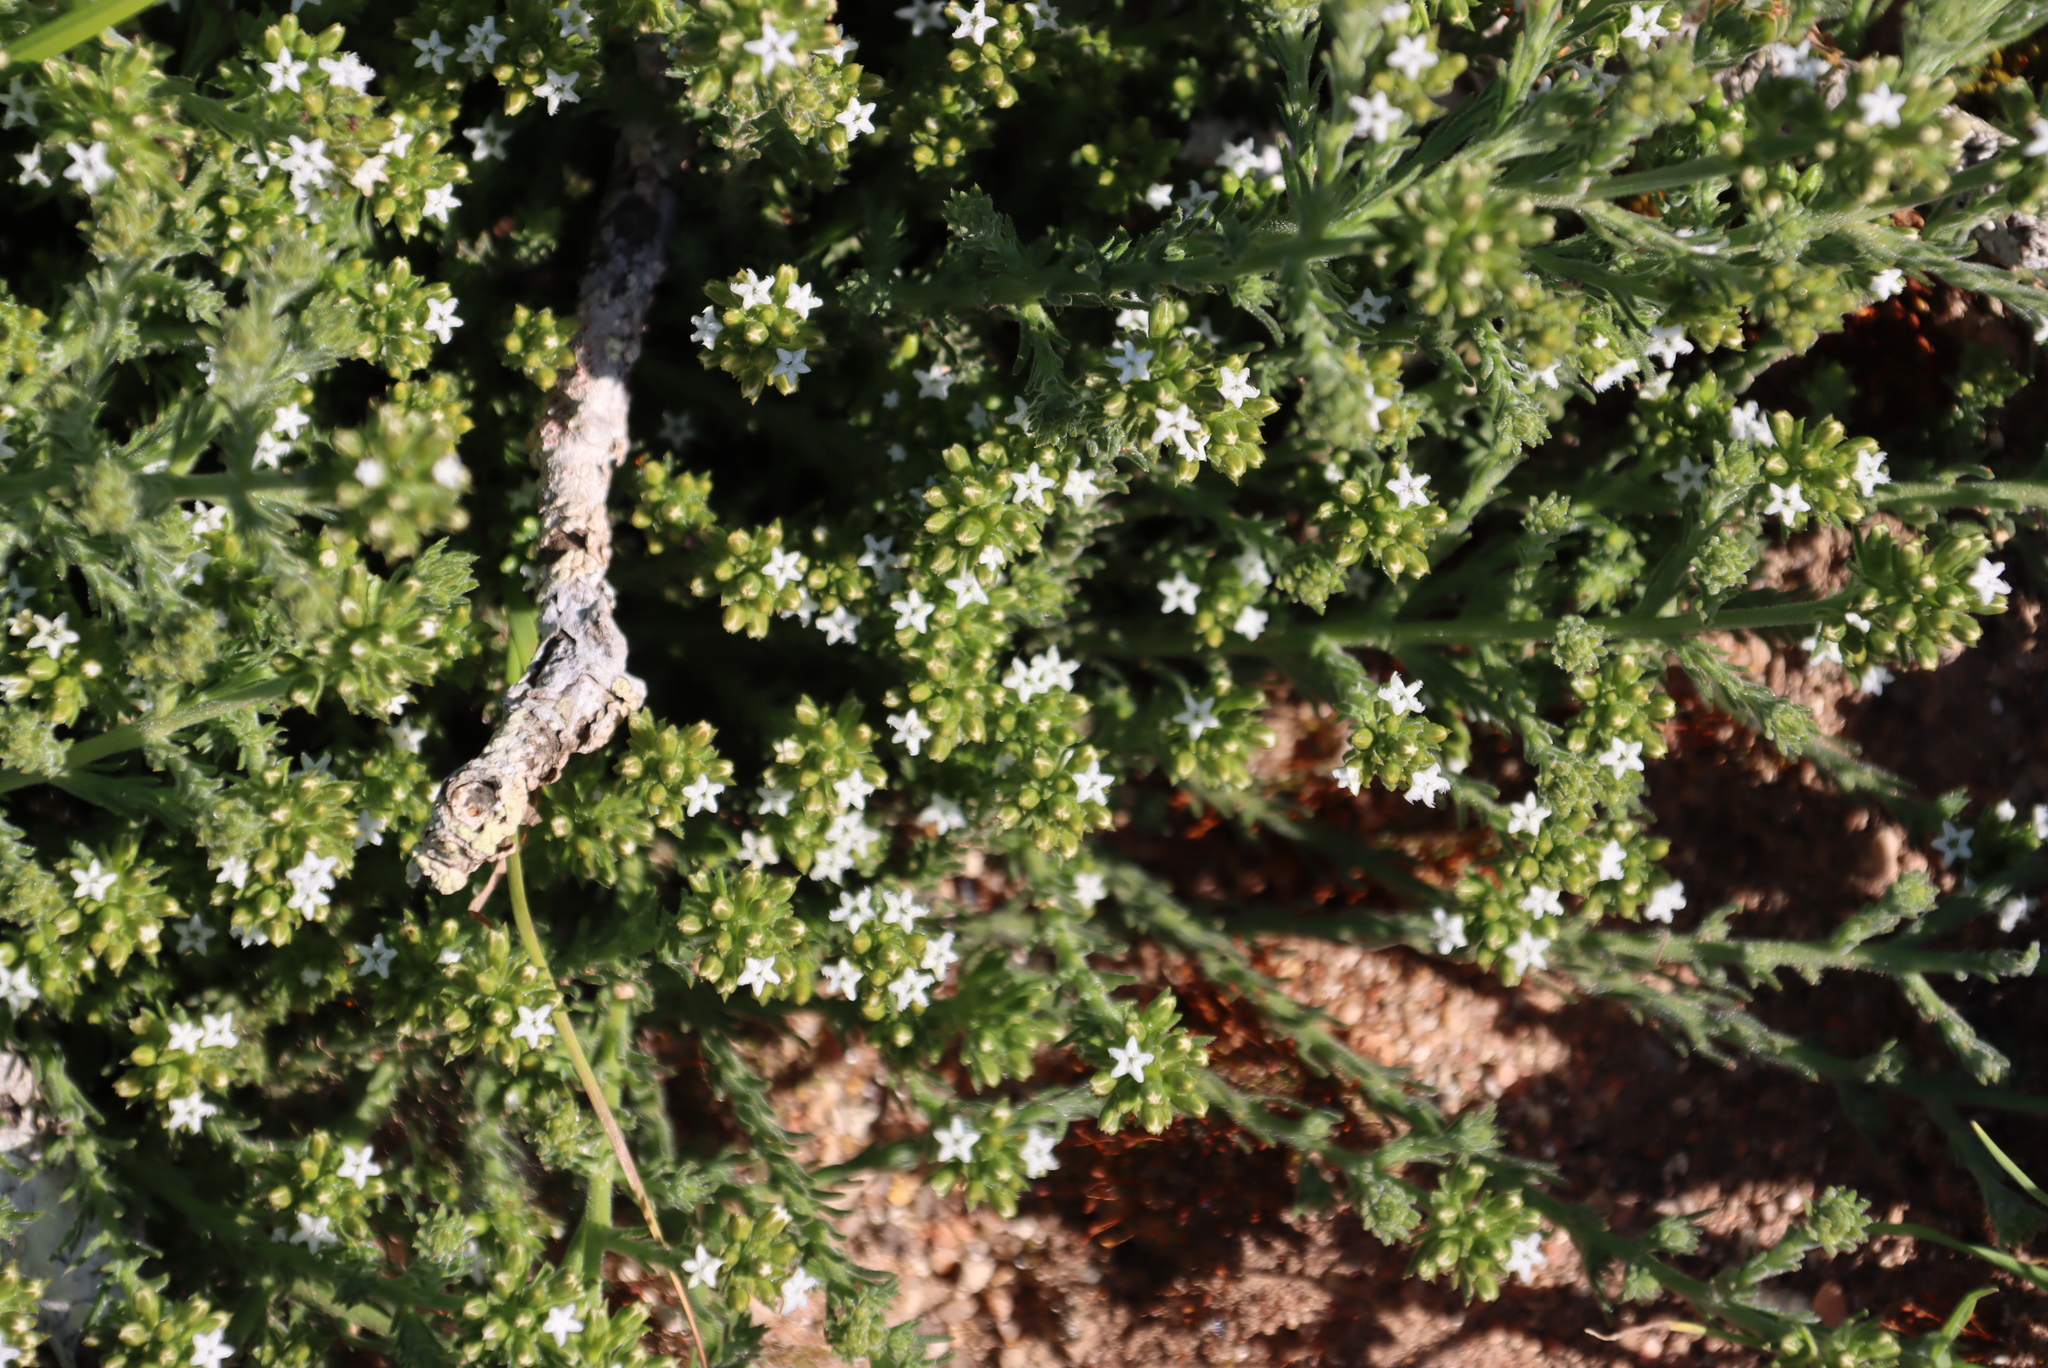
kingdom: Plantae
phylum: Tracheophyta
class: Magnoliopsida
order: Santalales
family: Thesiaceae
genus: Thesium
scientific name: Thesium pubescens
